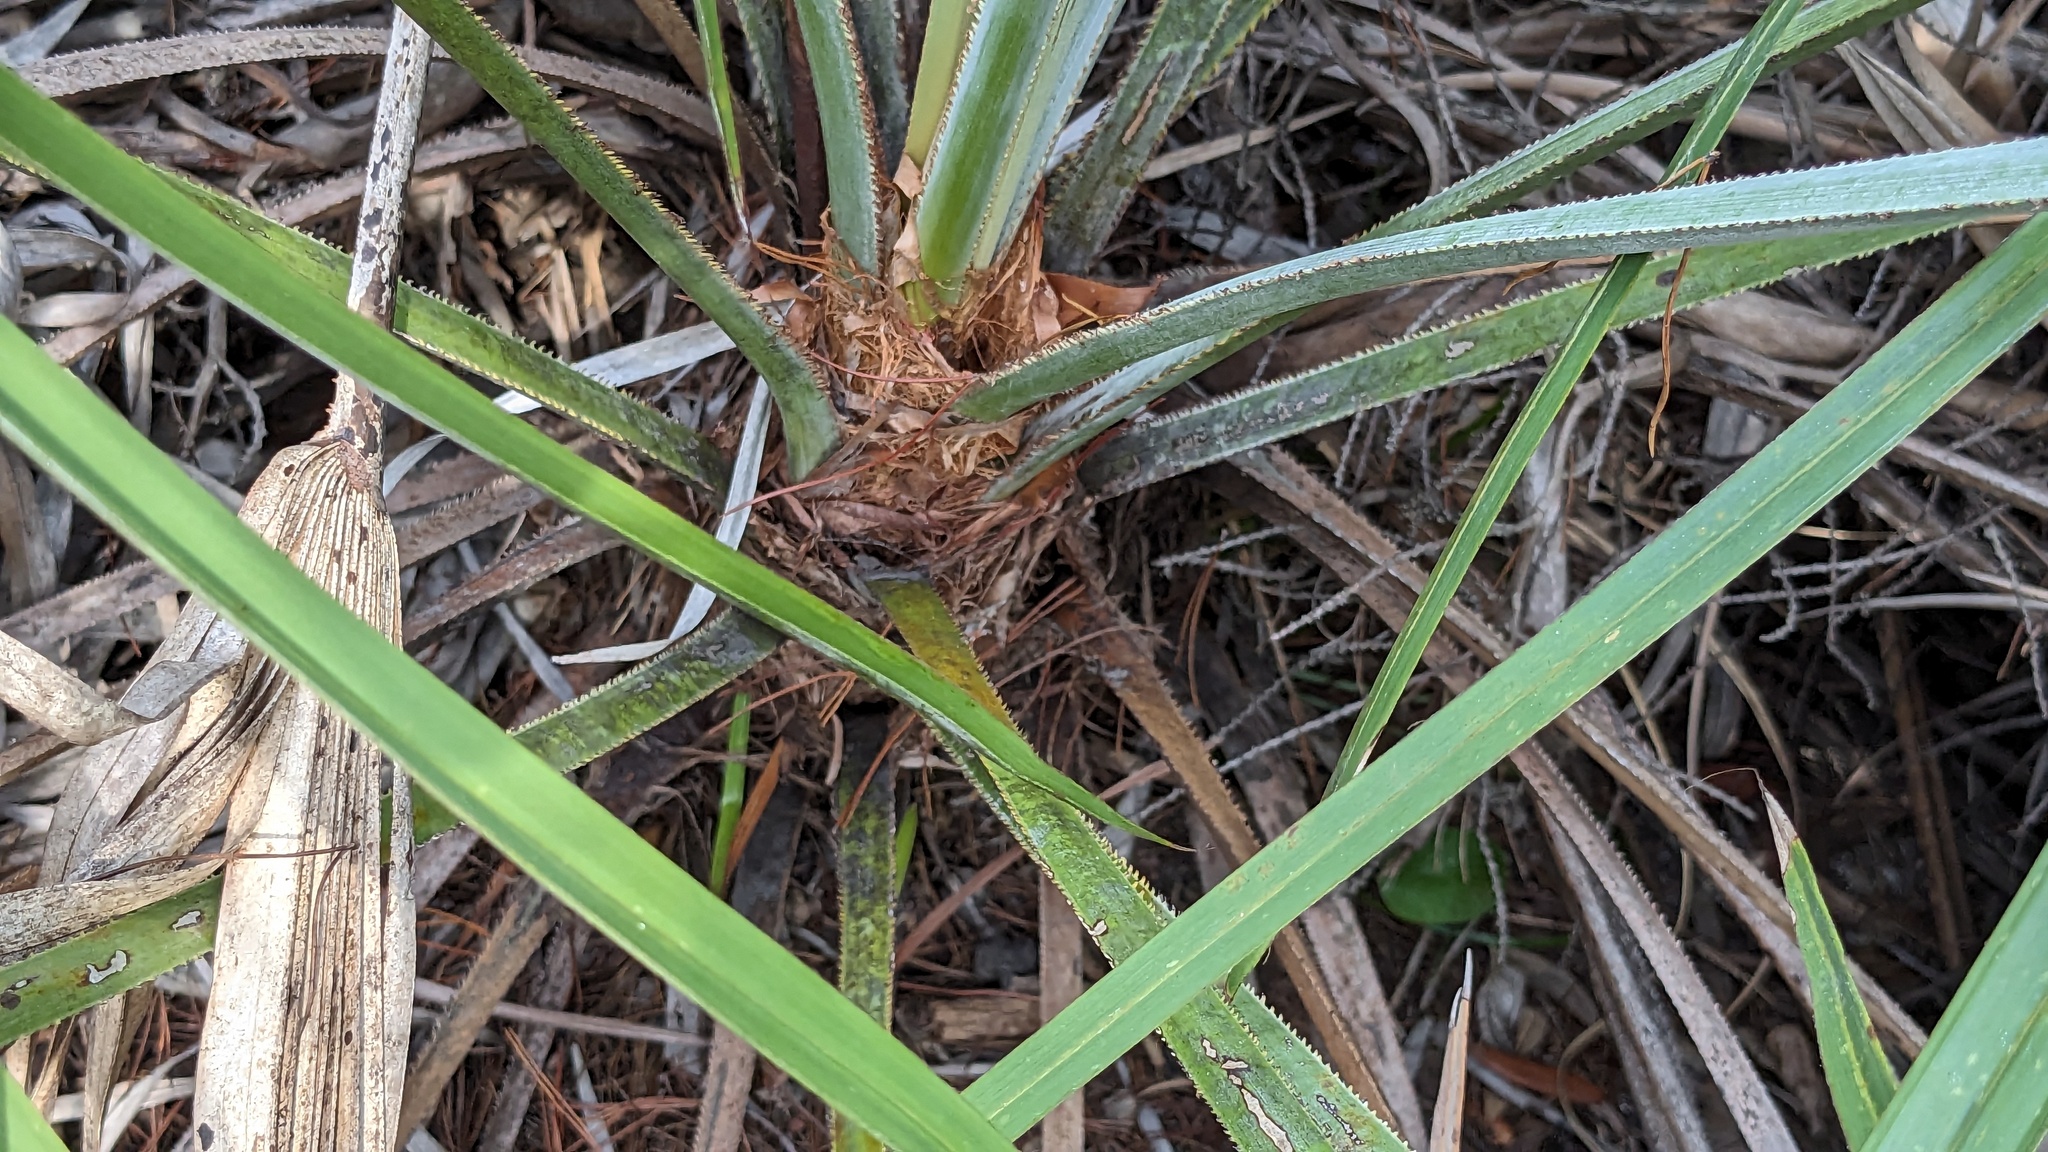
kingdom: Plantae
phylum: Tracheophyta
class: Liliopsida
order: Arecales
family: Arecaceae
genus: Serenoa
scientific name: Serenoa repens
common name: Saw-palmetto
